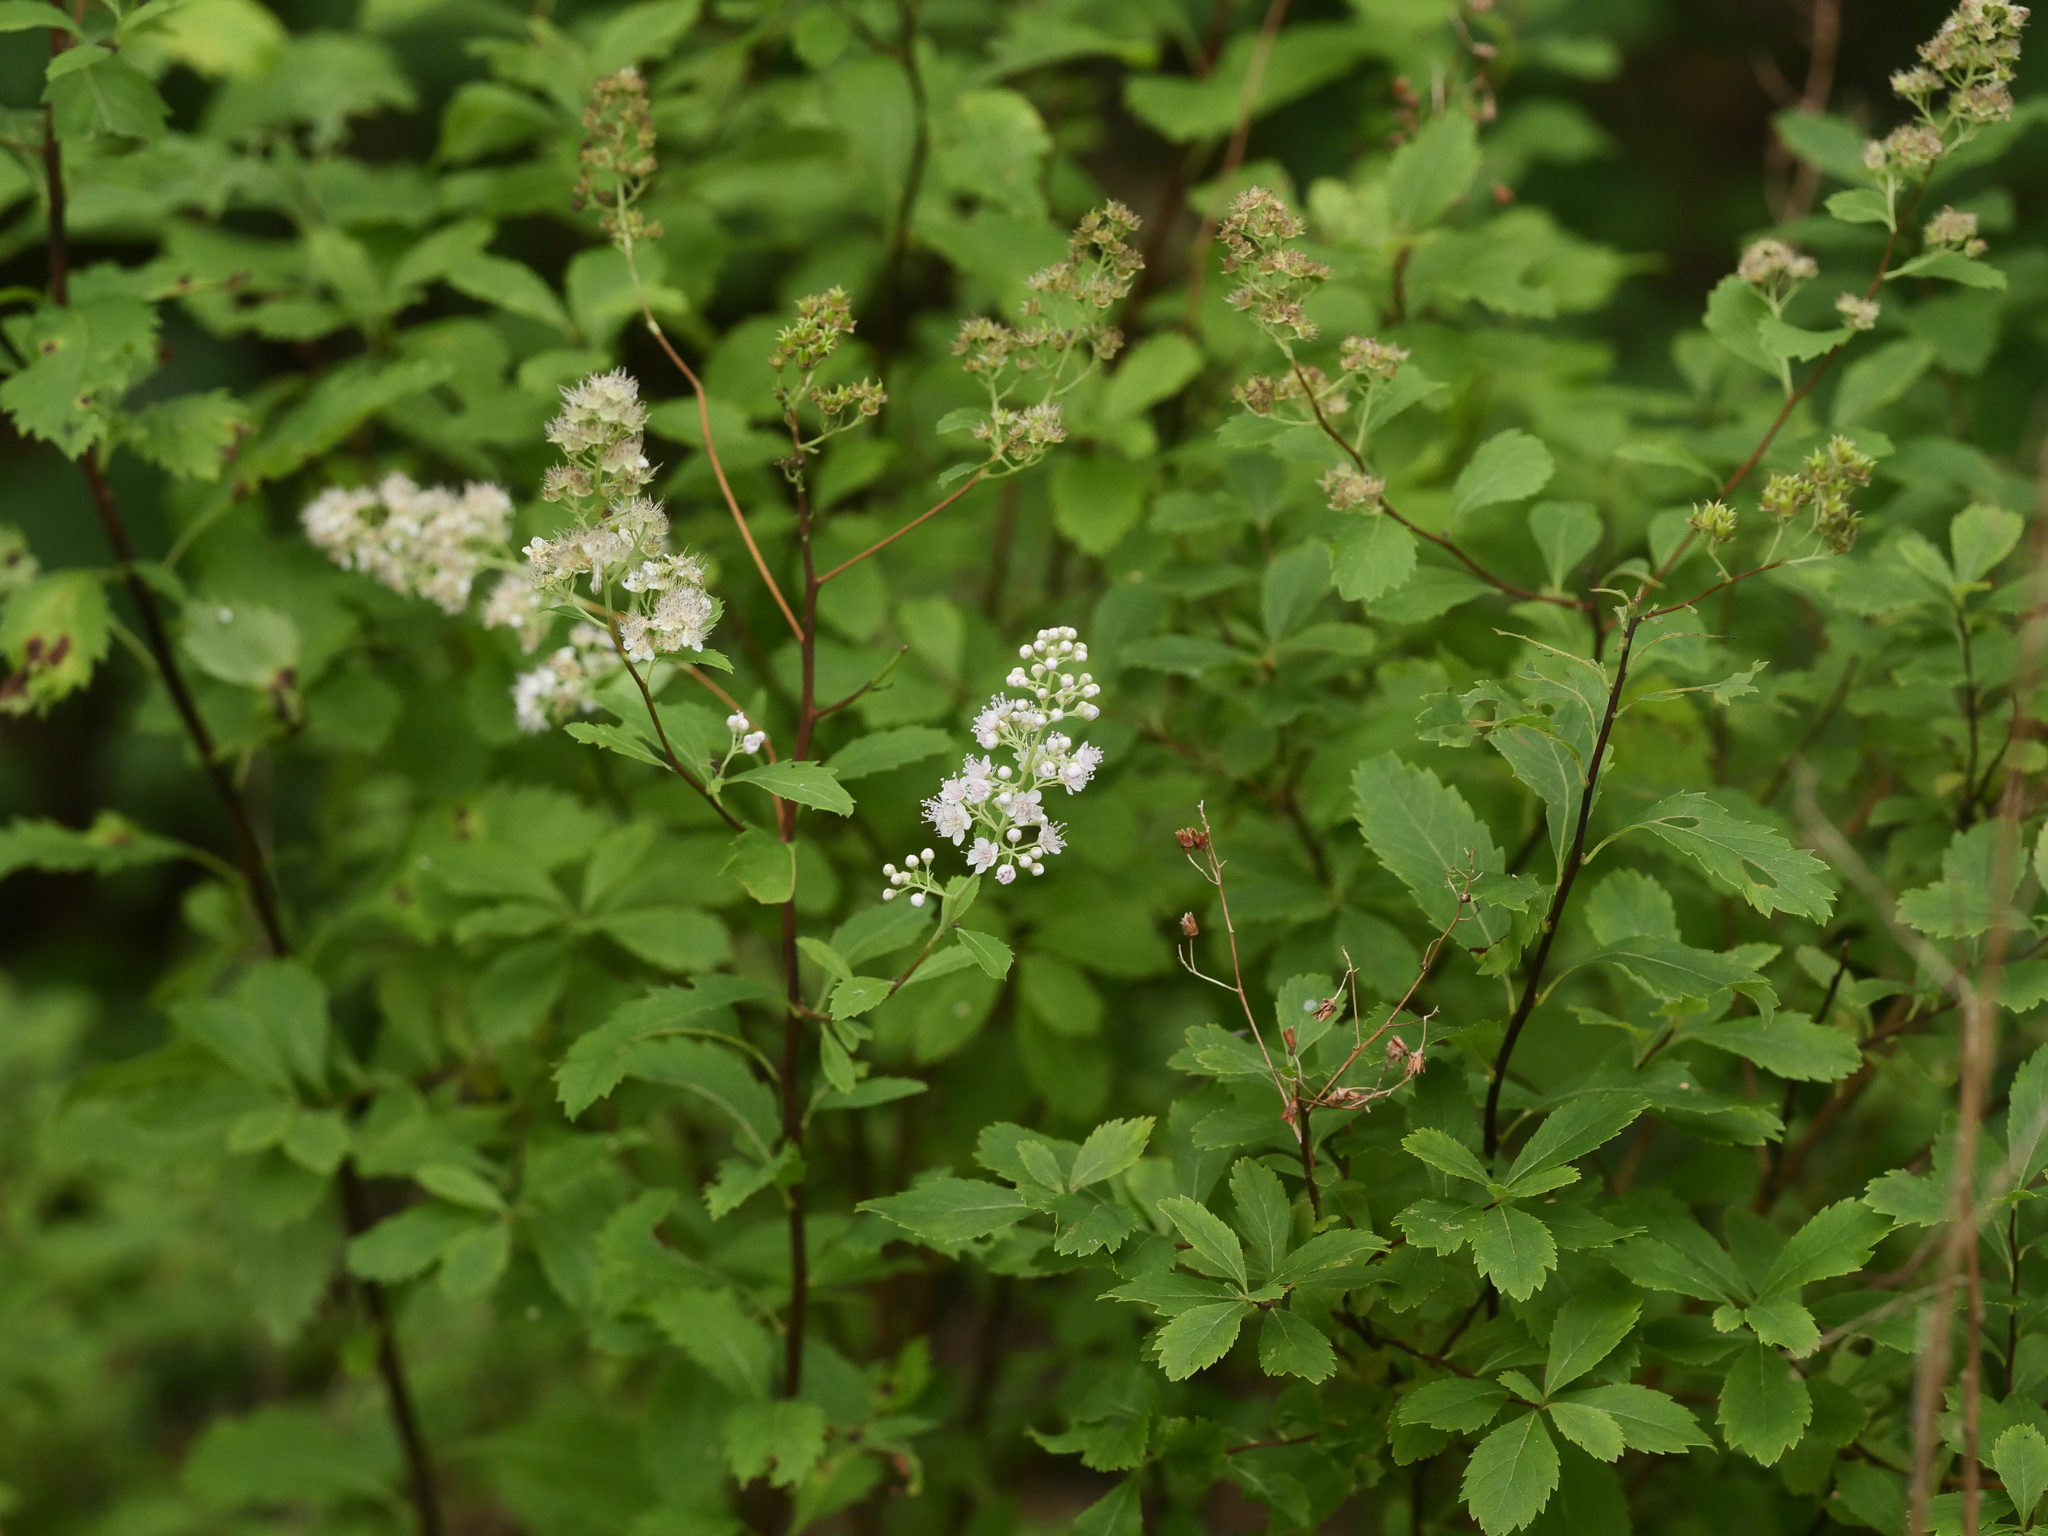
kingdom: Plantae
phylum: Tracheophyta
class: Magnoliopsida
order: Rosales
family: Rosaceae
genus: Spiraea
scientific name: Spiraea alba
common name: Pale bridewort
